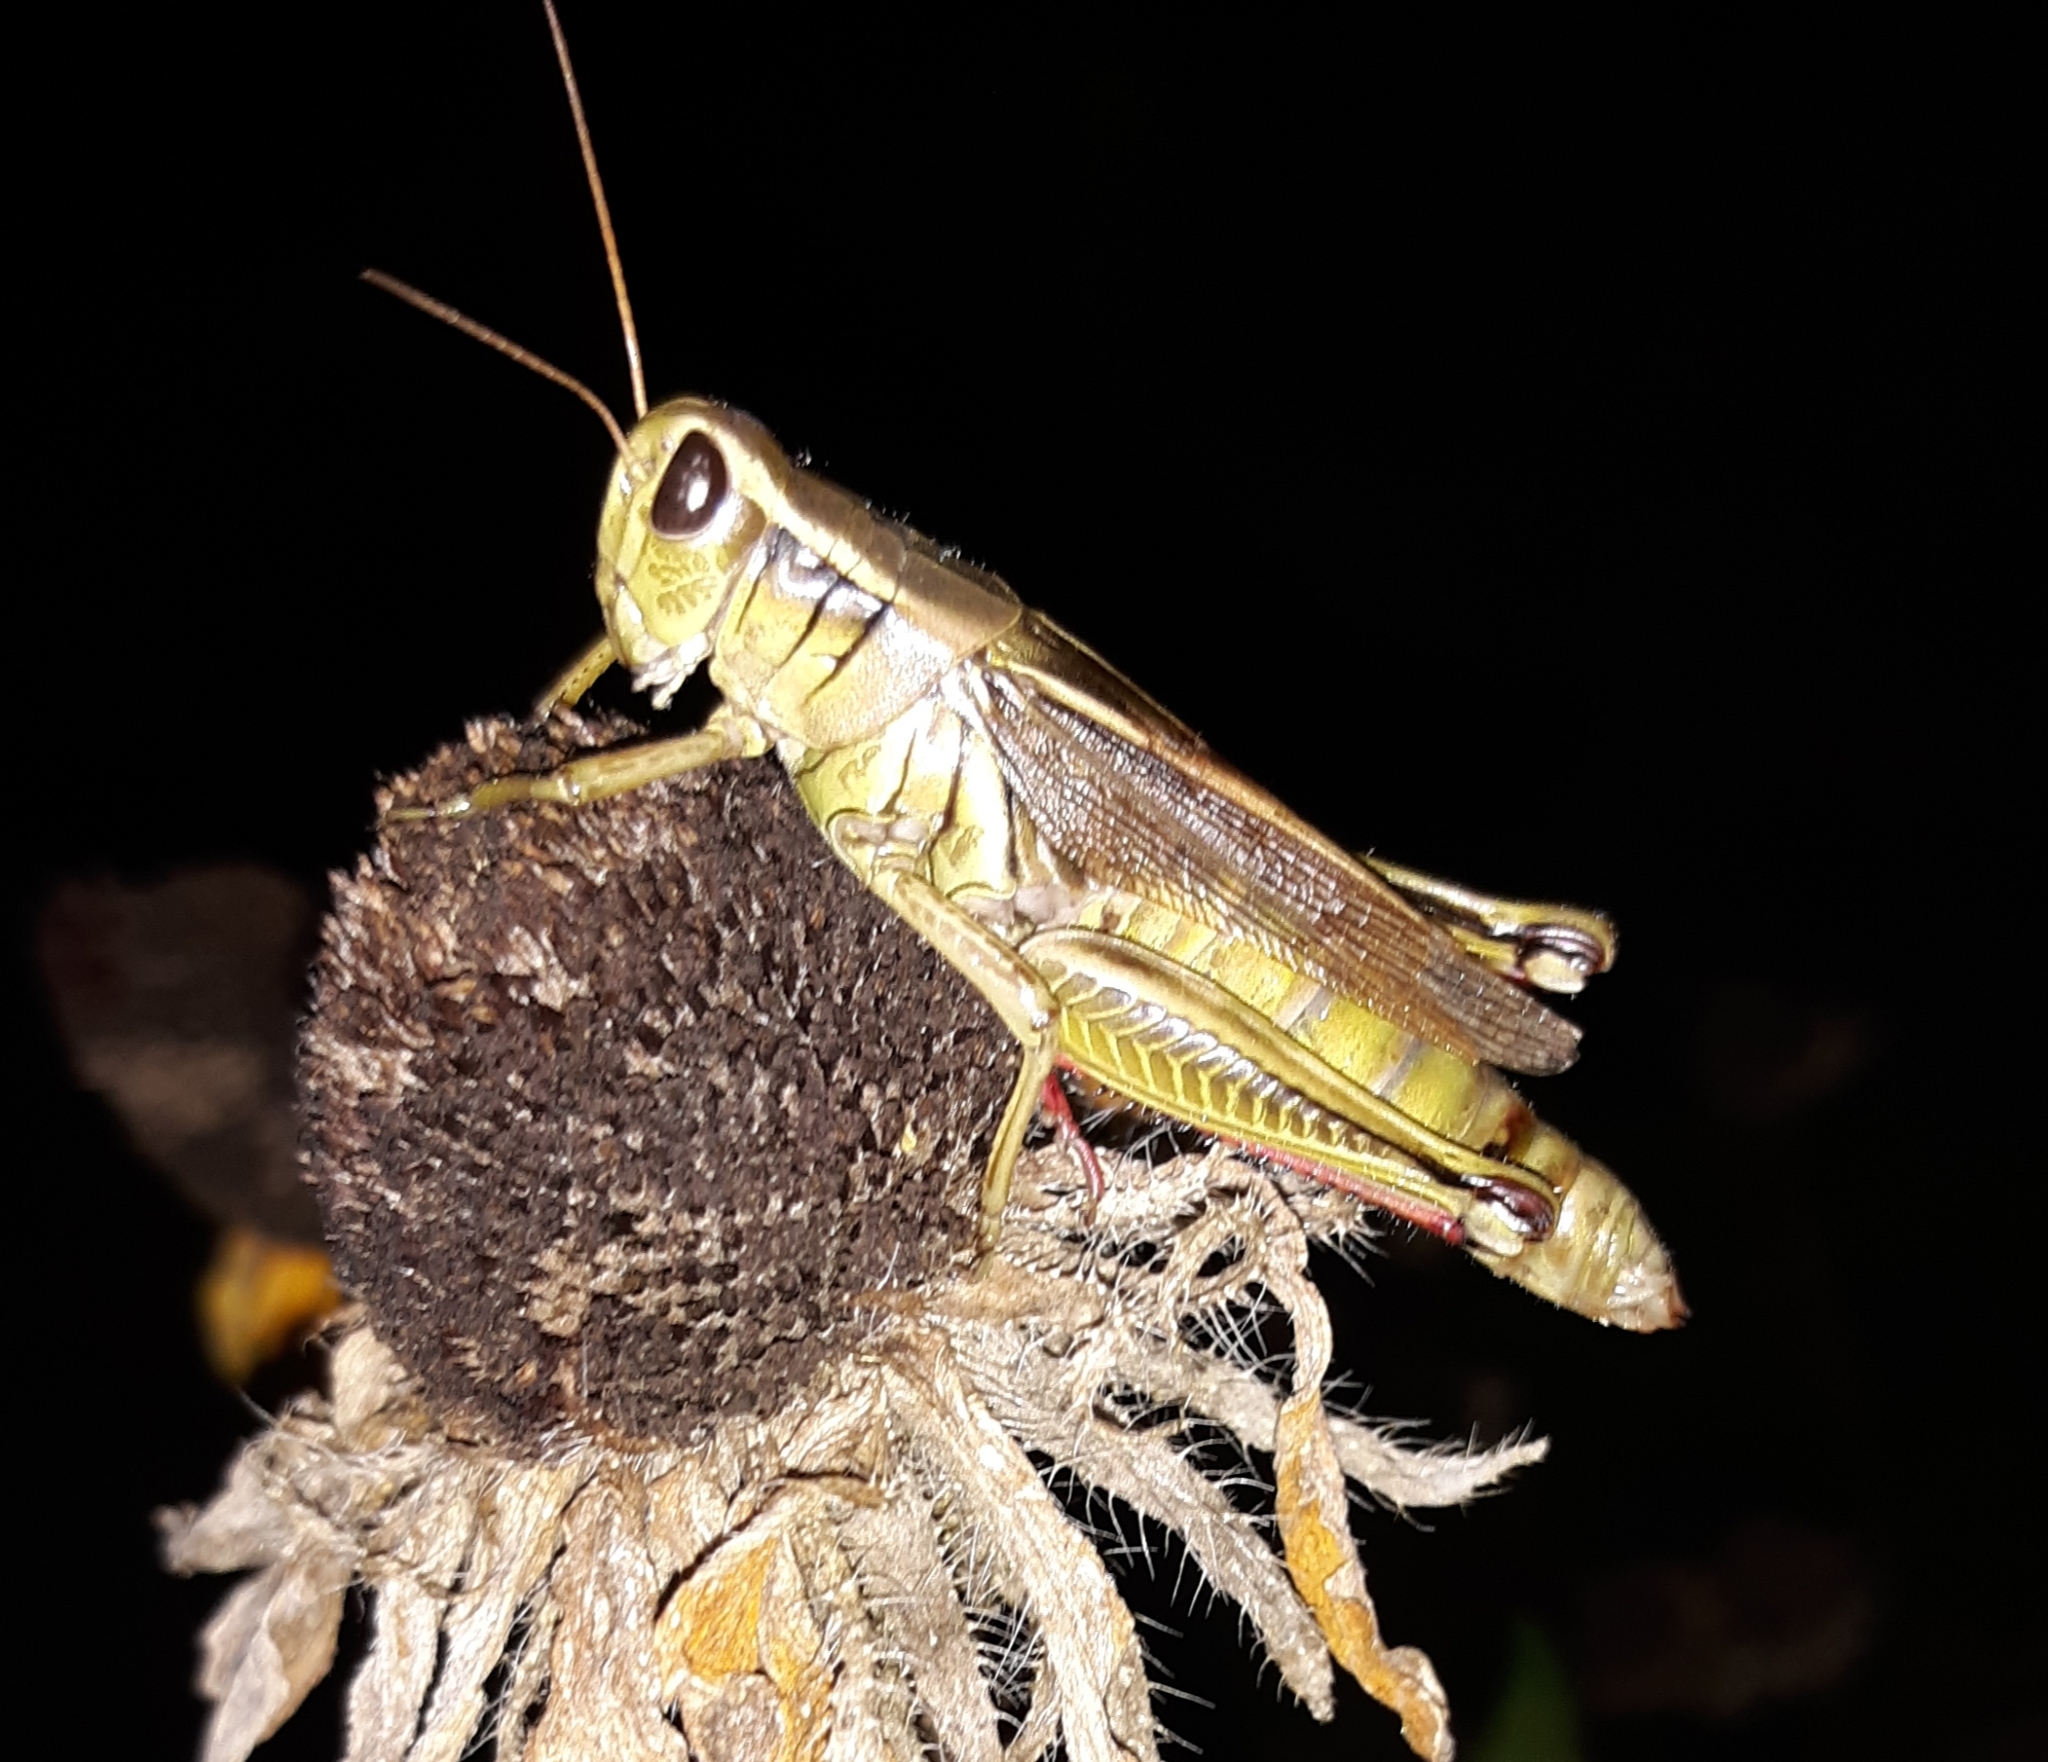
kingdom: Animalia
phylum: Arthropoda
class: Insecta
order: Orthoptera
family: Acrididae
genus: Melanoplus
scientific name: Melanoplus bivittatus
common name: Two-striped grasshopper
